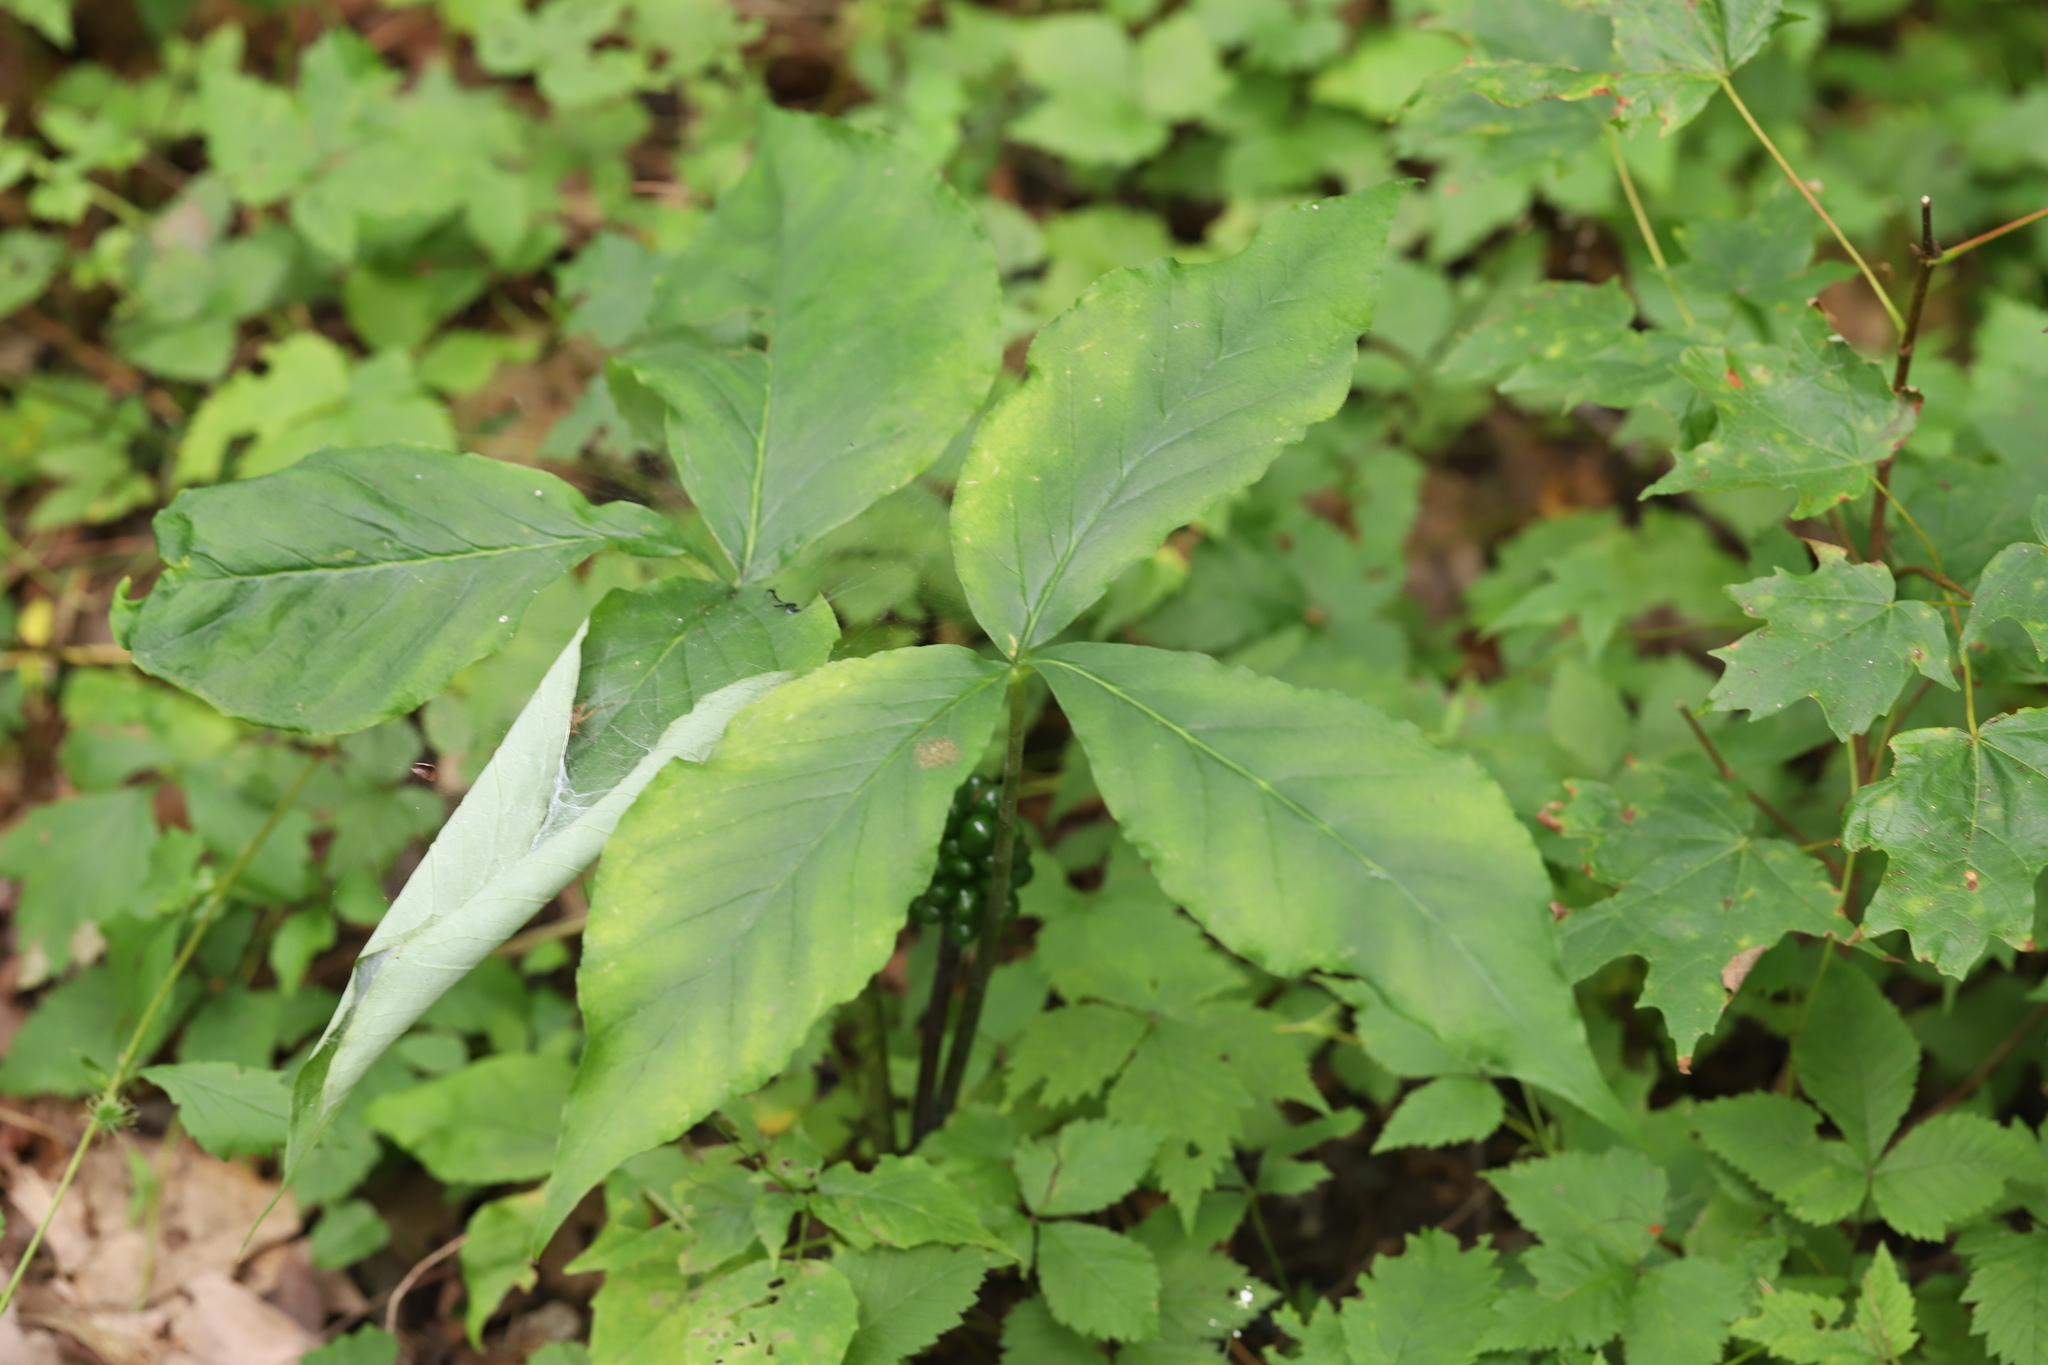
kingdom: Plantae
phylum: Tracheophyta
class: Liliopsida
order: Alismatales
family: Araceae
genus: Arisaema
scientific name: Arisaema triphyllum
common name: Jack-in-the-pulpit
